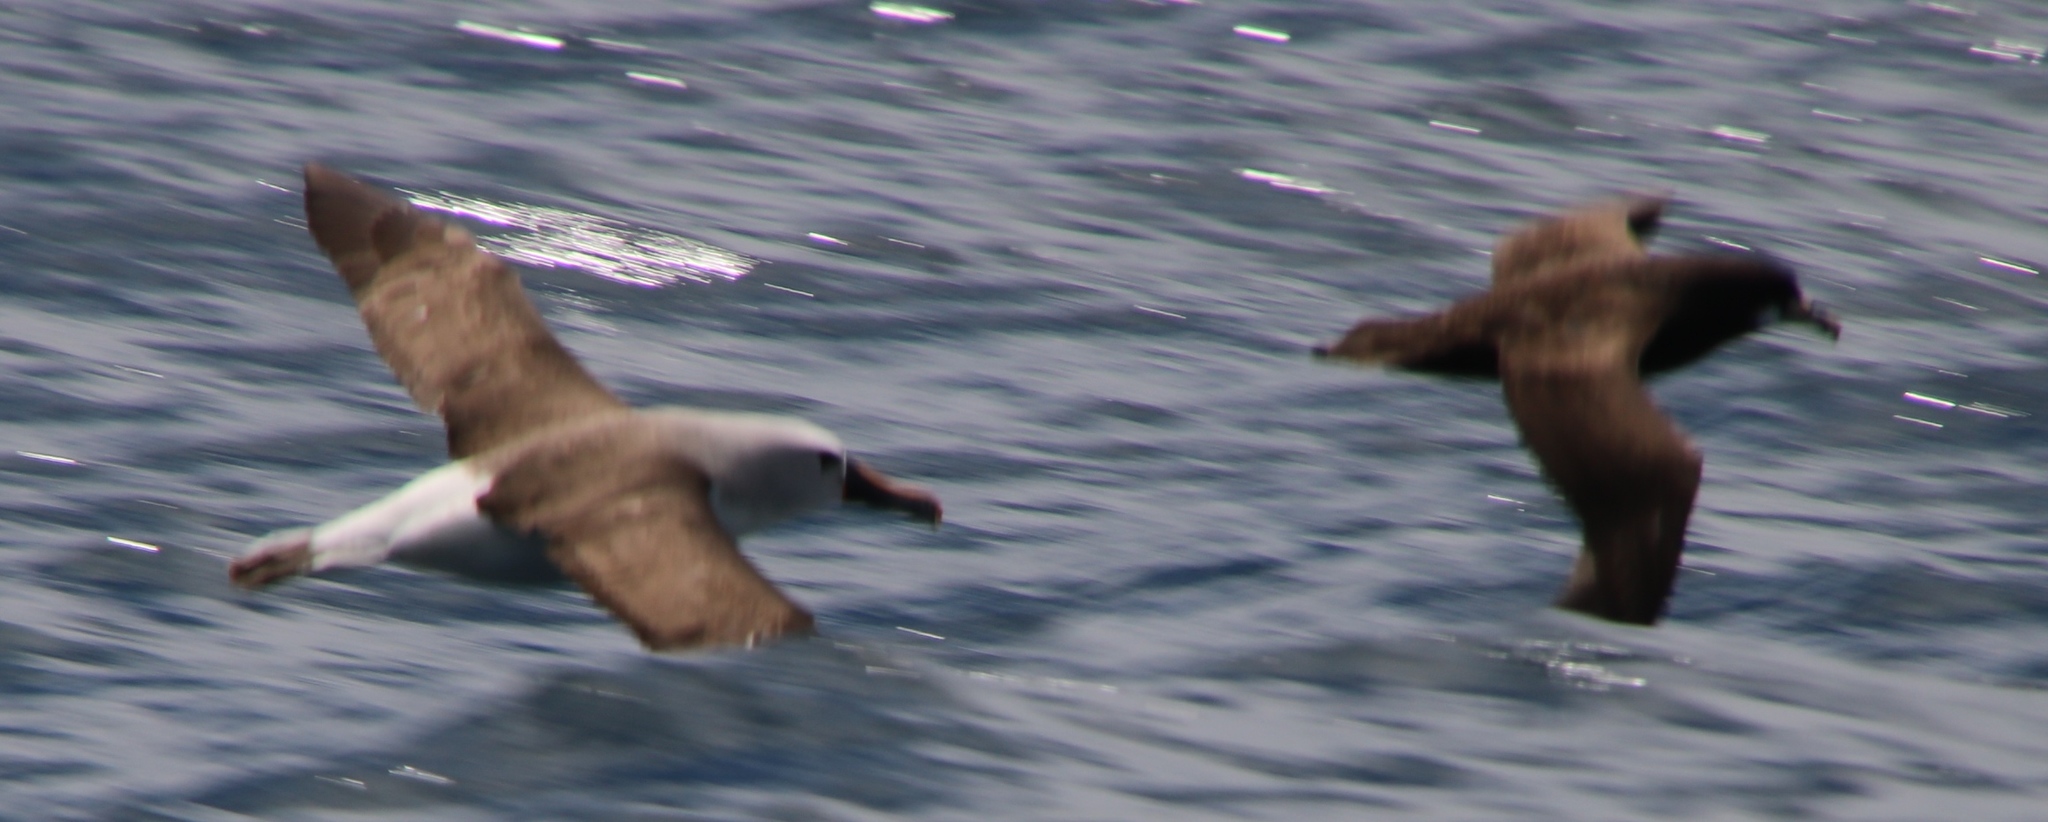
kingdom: Animalia
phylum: Chordata
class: Aves
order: Procellariiformes
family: Diomedeidae
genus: Thalassarche
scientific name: Thalassarche carteri
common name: Indian yellow-nosed albatross
